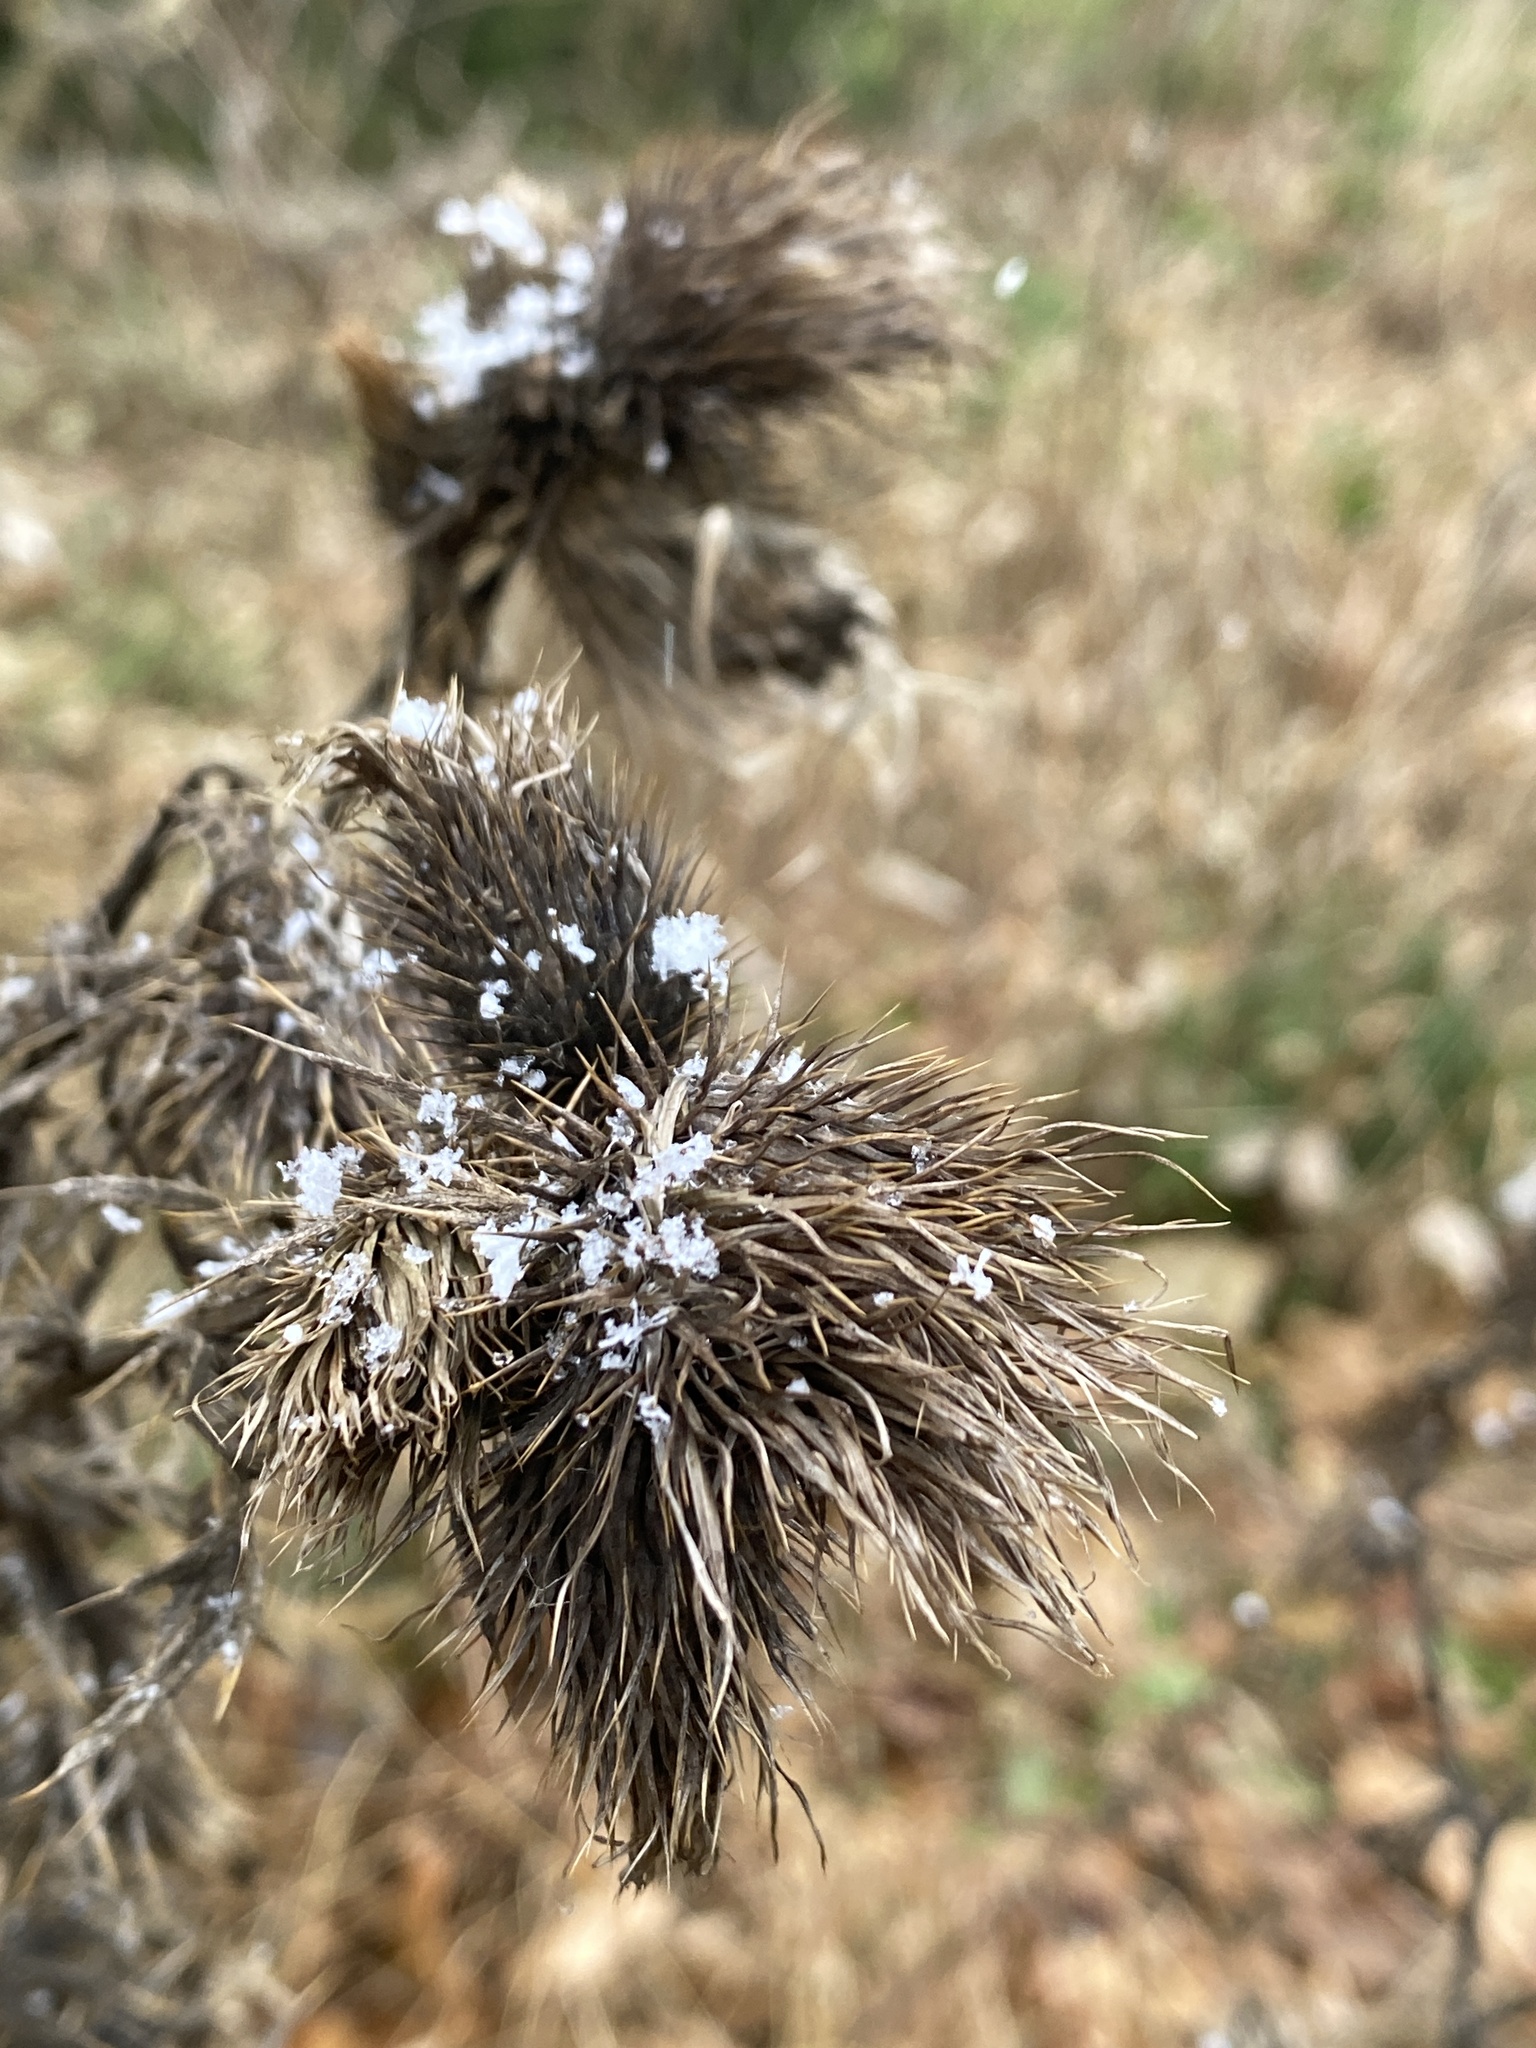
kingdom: Plantae
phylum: Tracheophyta
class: Magnoliopsida
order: Asterales
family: Asteraceae
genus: Cirsium
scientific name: Cirsium vulgare
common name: Bull thistle
